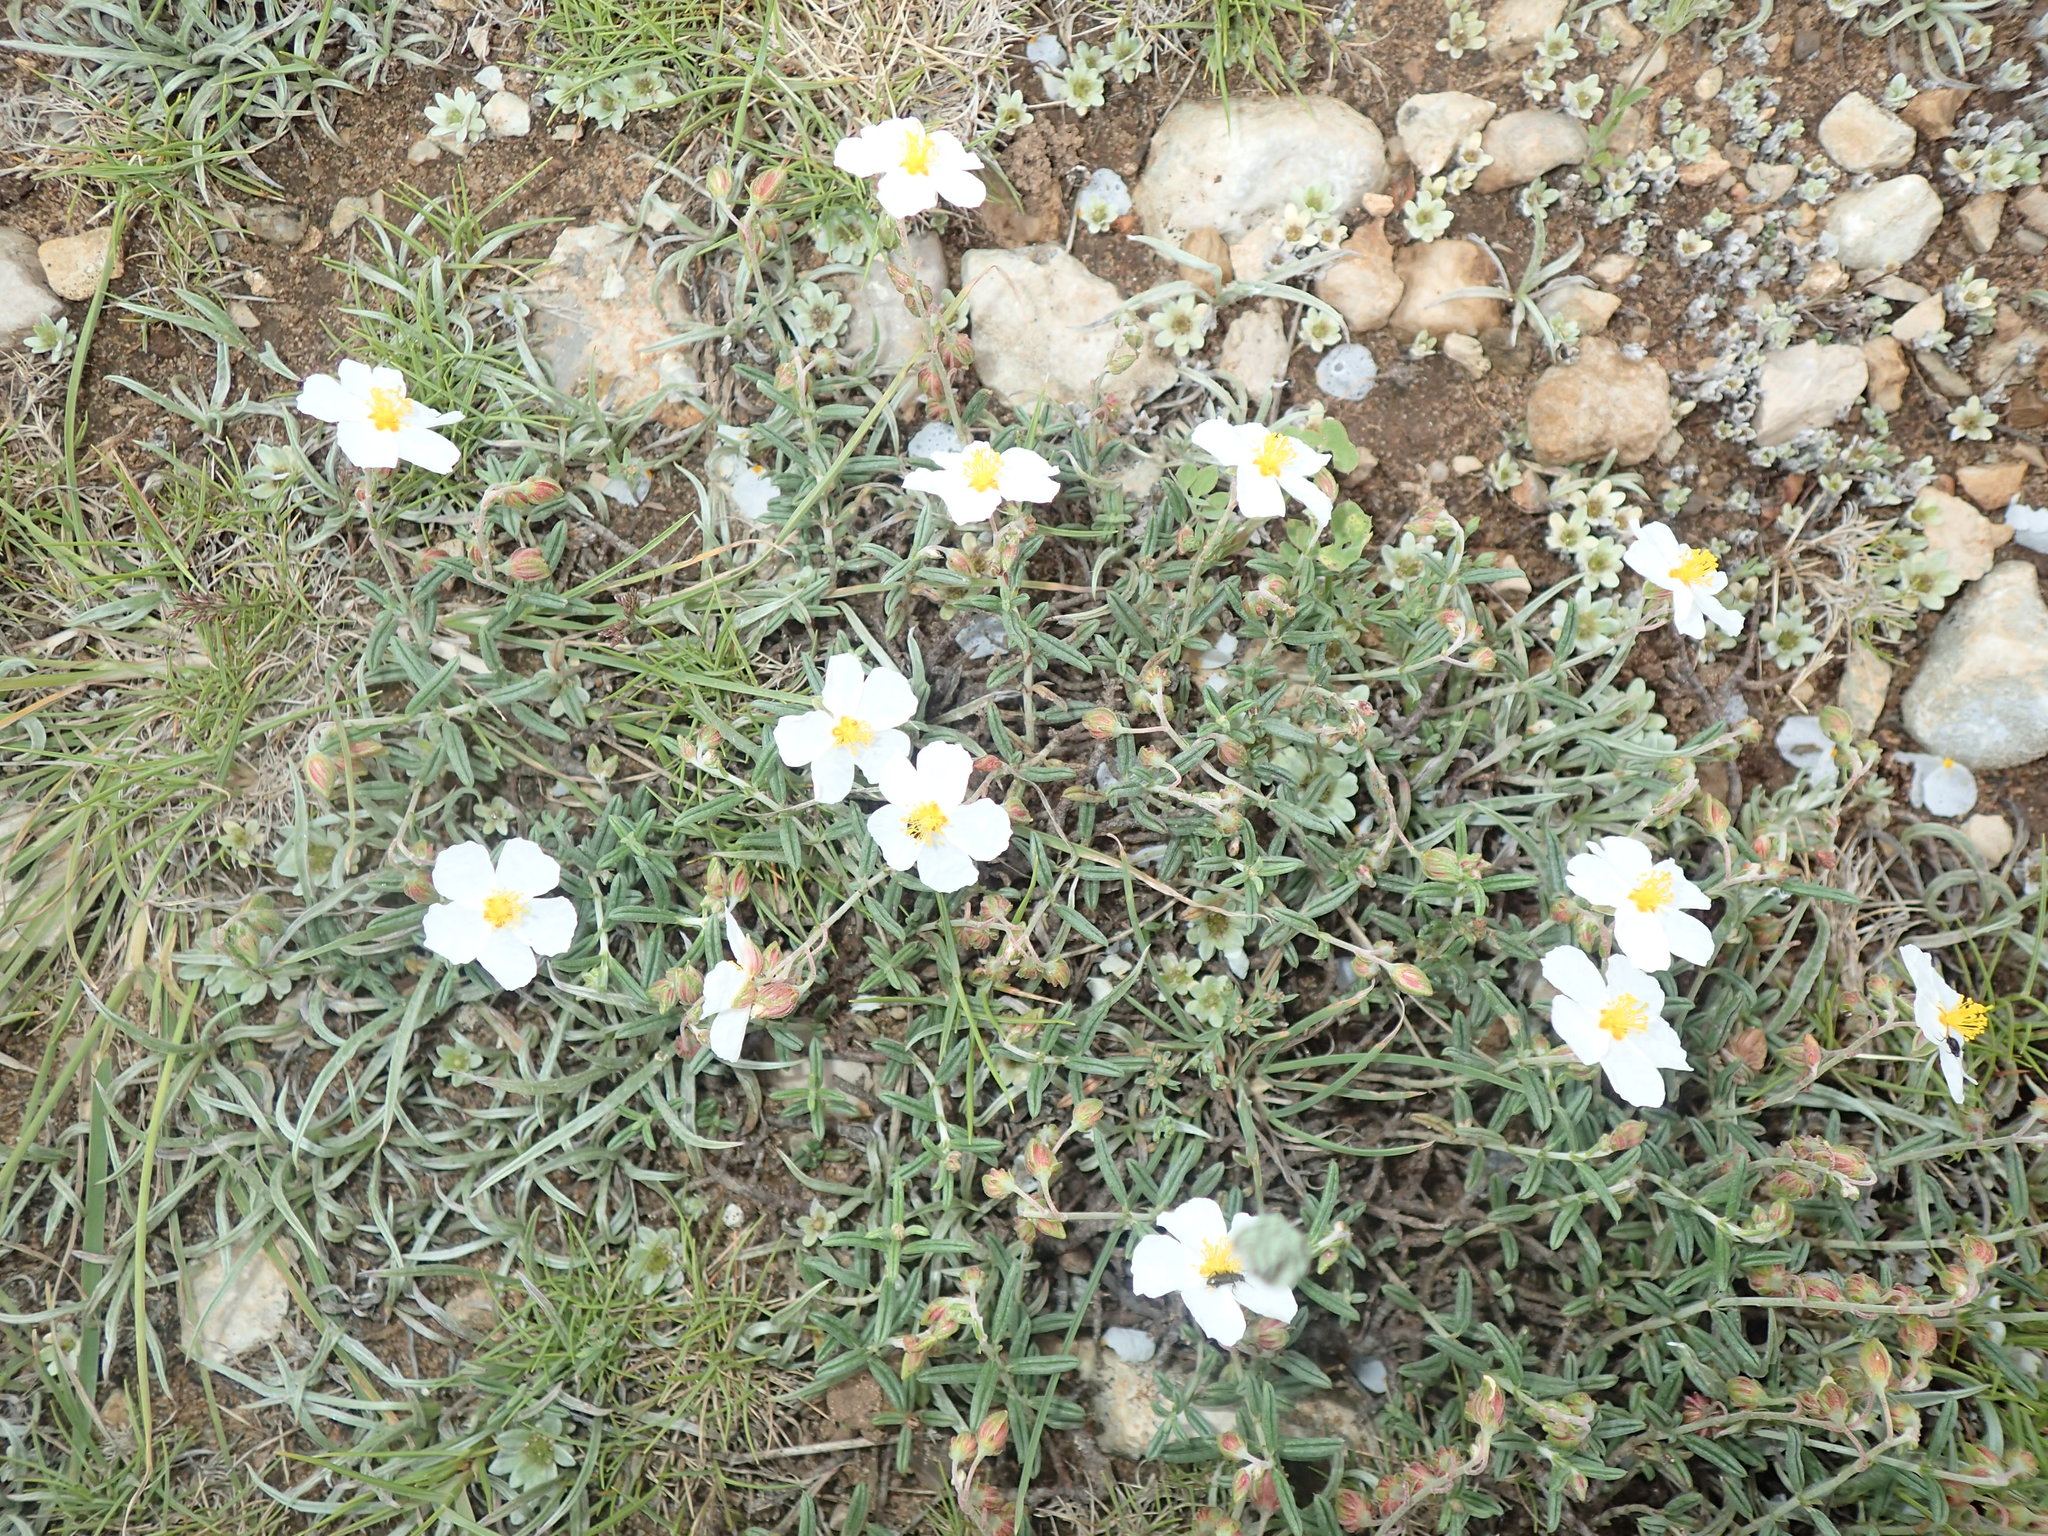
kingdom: Plantae
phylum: Tracheophyta
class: Magnoliopsida
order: Malvales
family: Cistaceae
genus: Helianthemum
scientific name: Helianthemum apenninum
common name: White rock-rose
